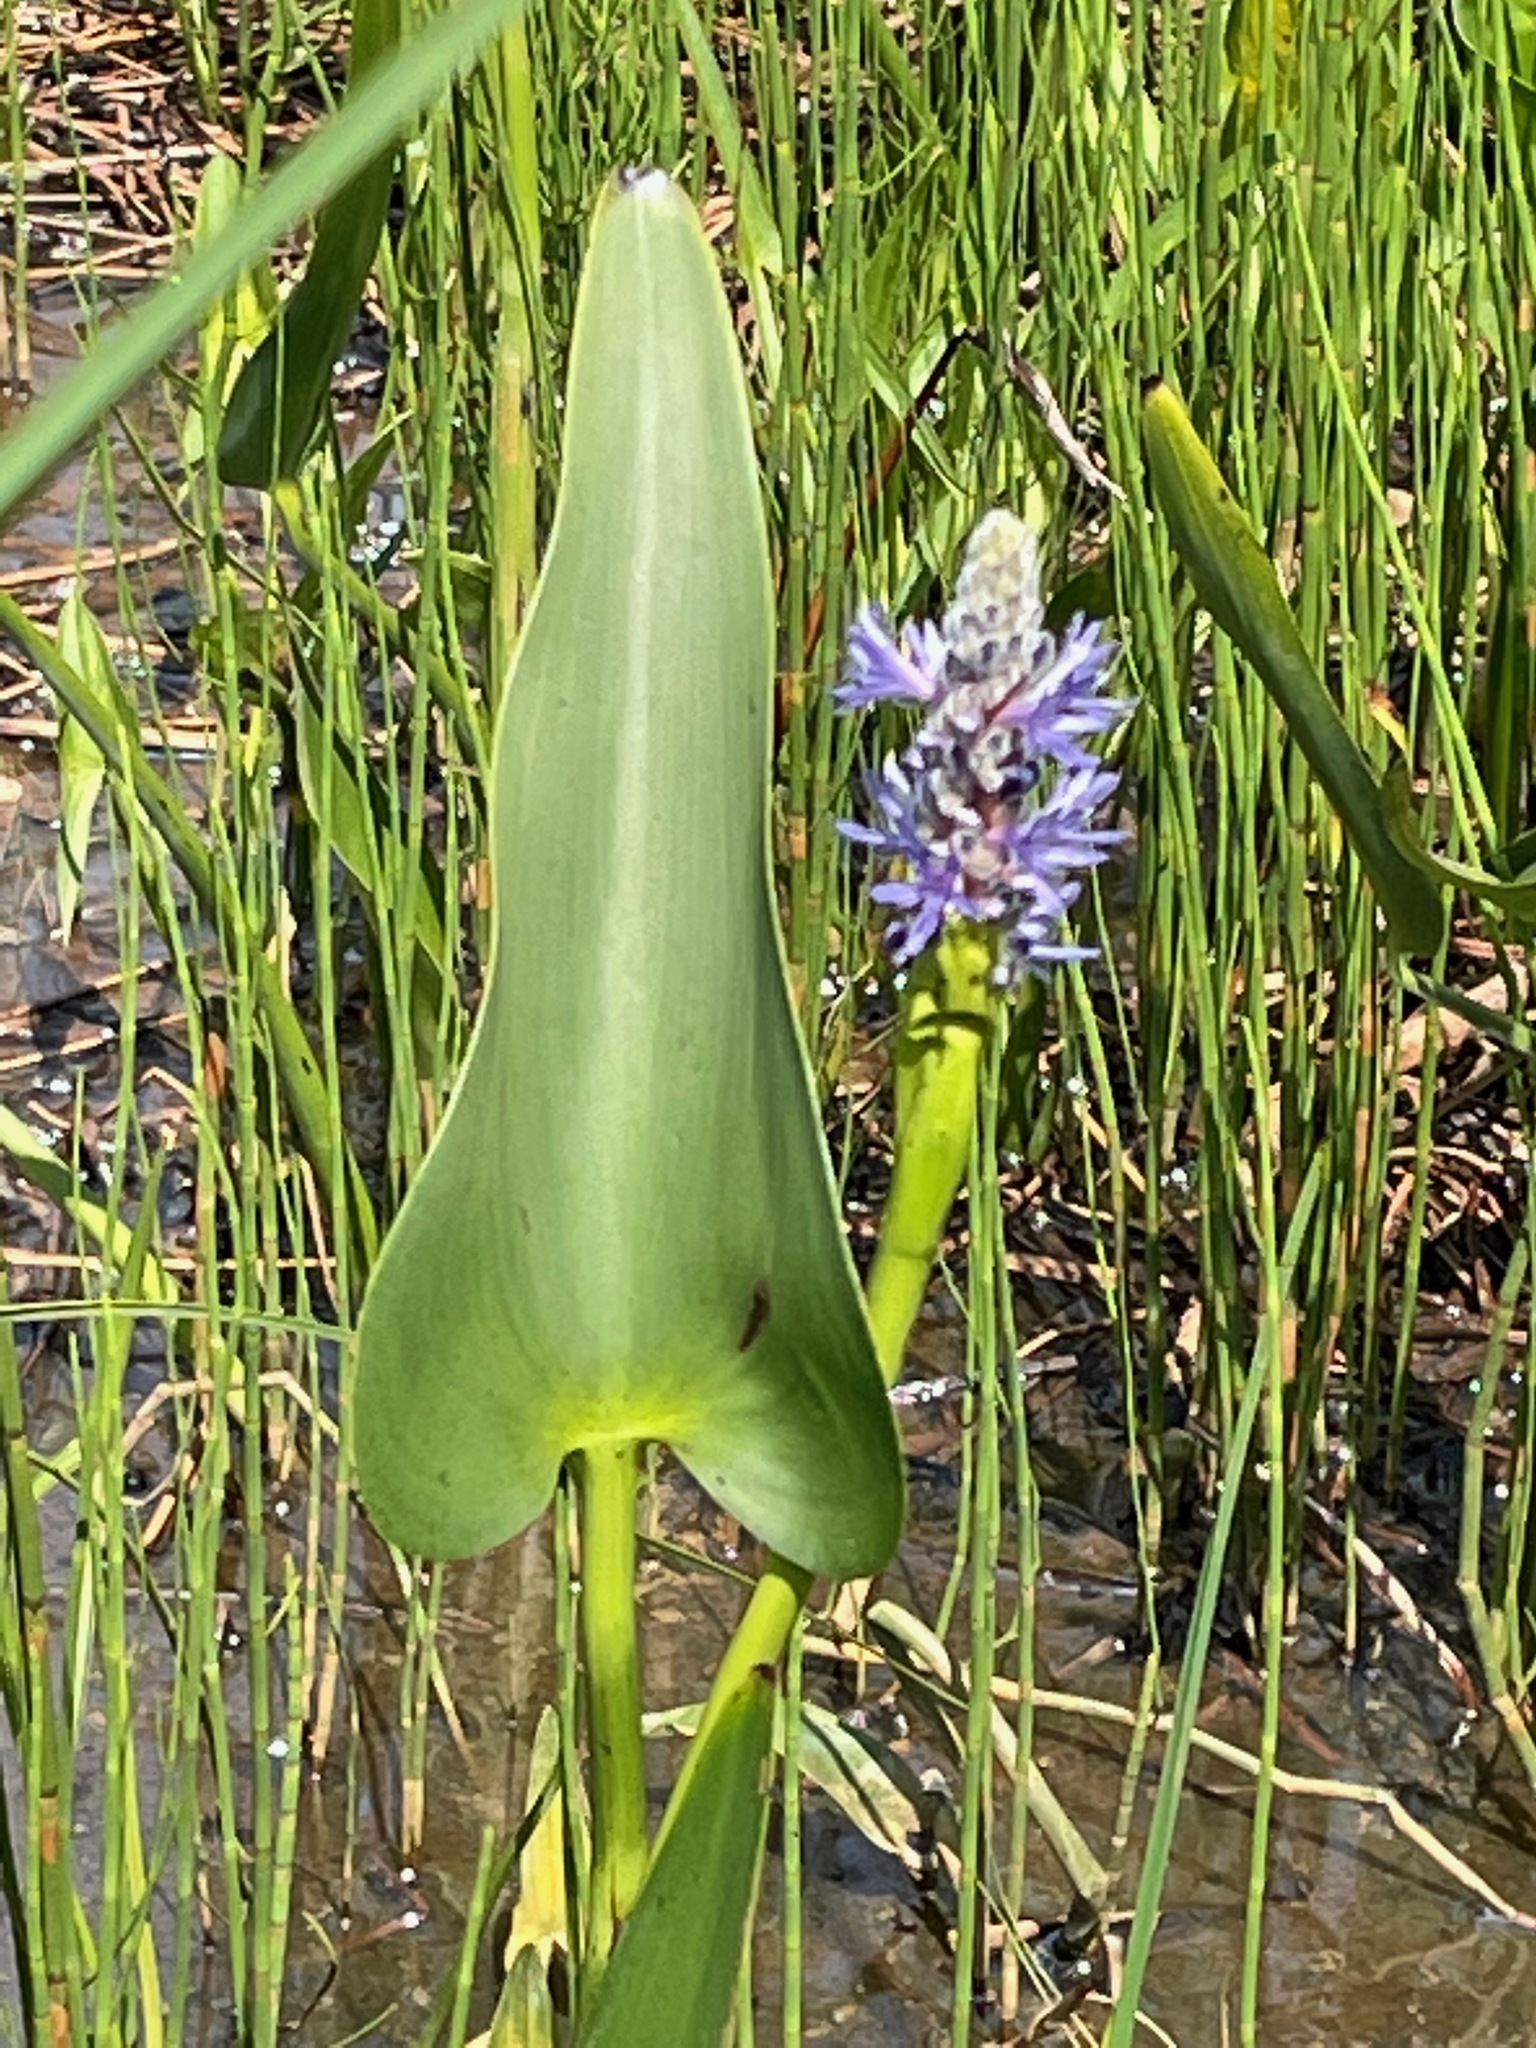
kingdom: Plantae
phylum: Tracheophyta
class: Liliopsida
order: Commelinales
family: Pontederiaceae
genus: Pontederia
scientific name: Pontederia cordata
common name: Pickerelweed
